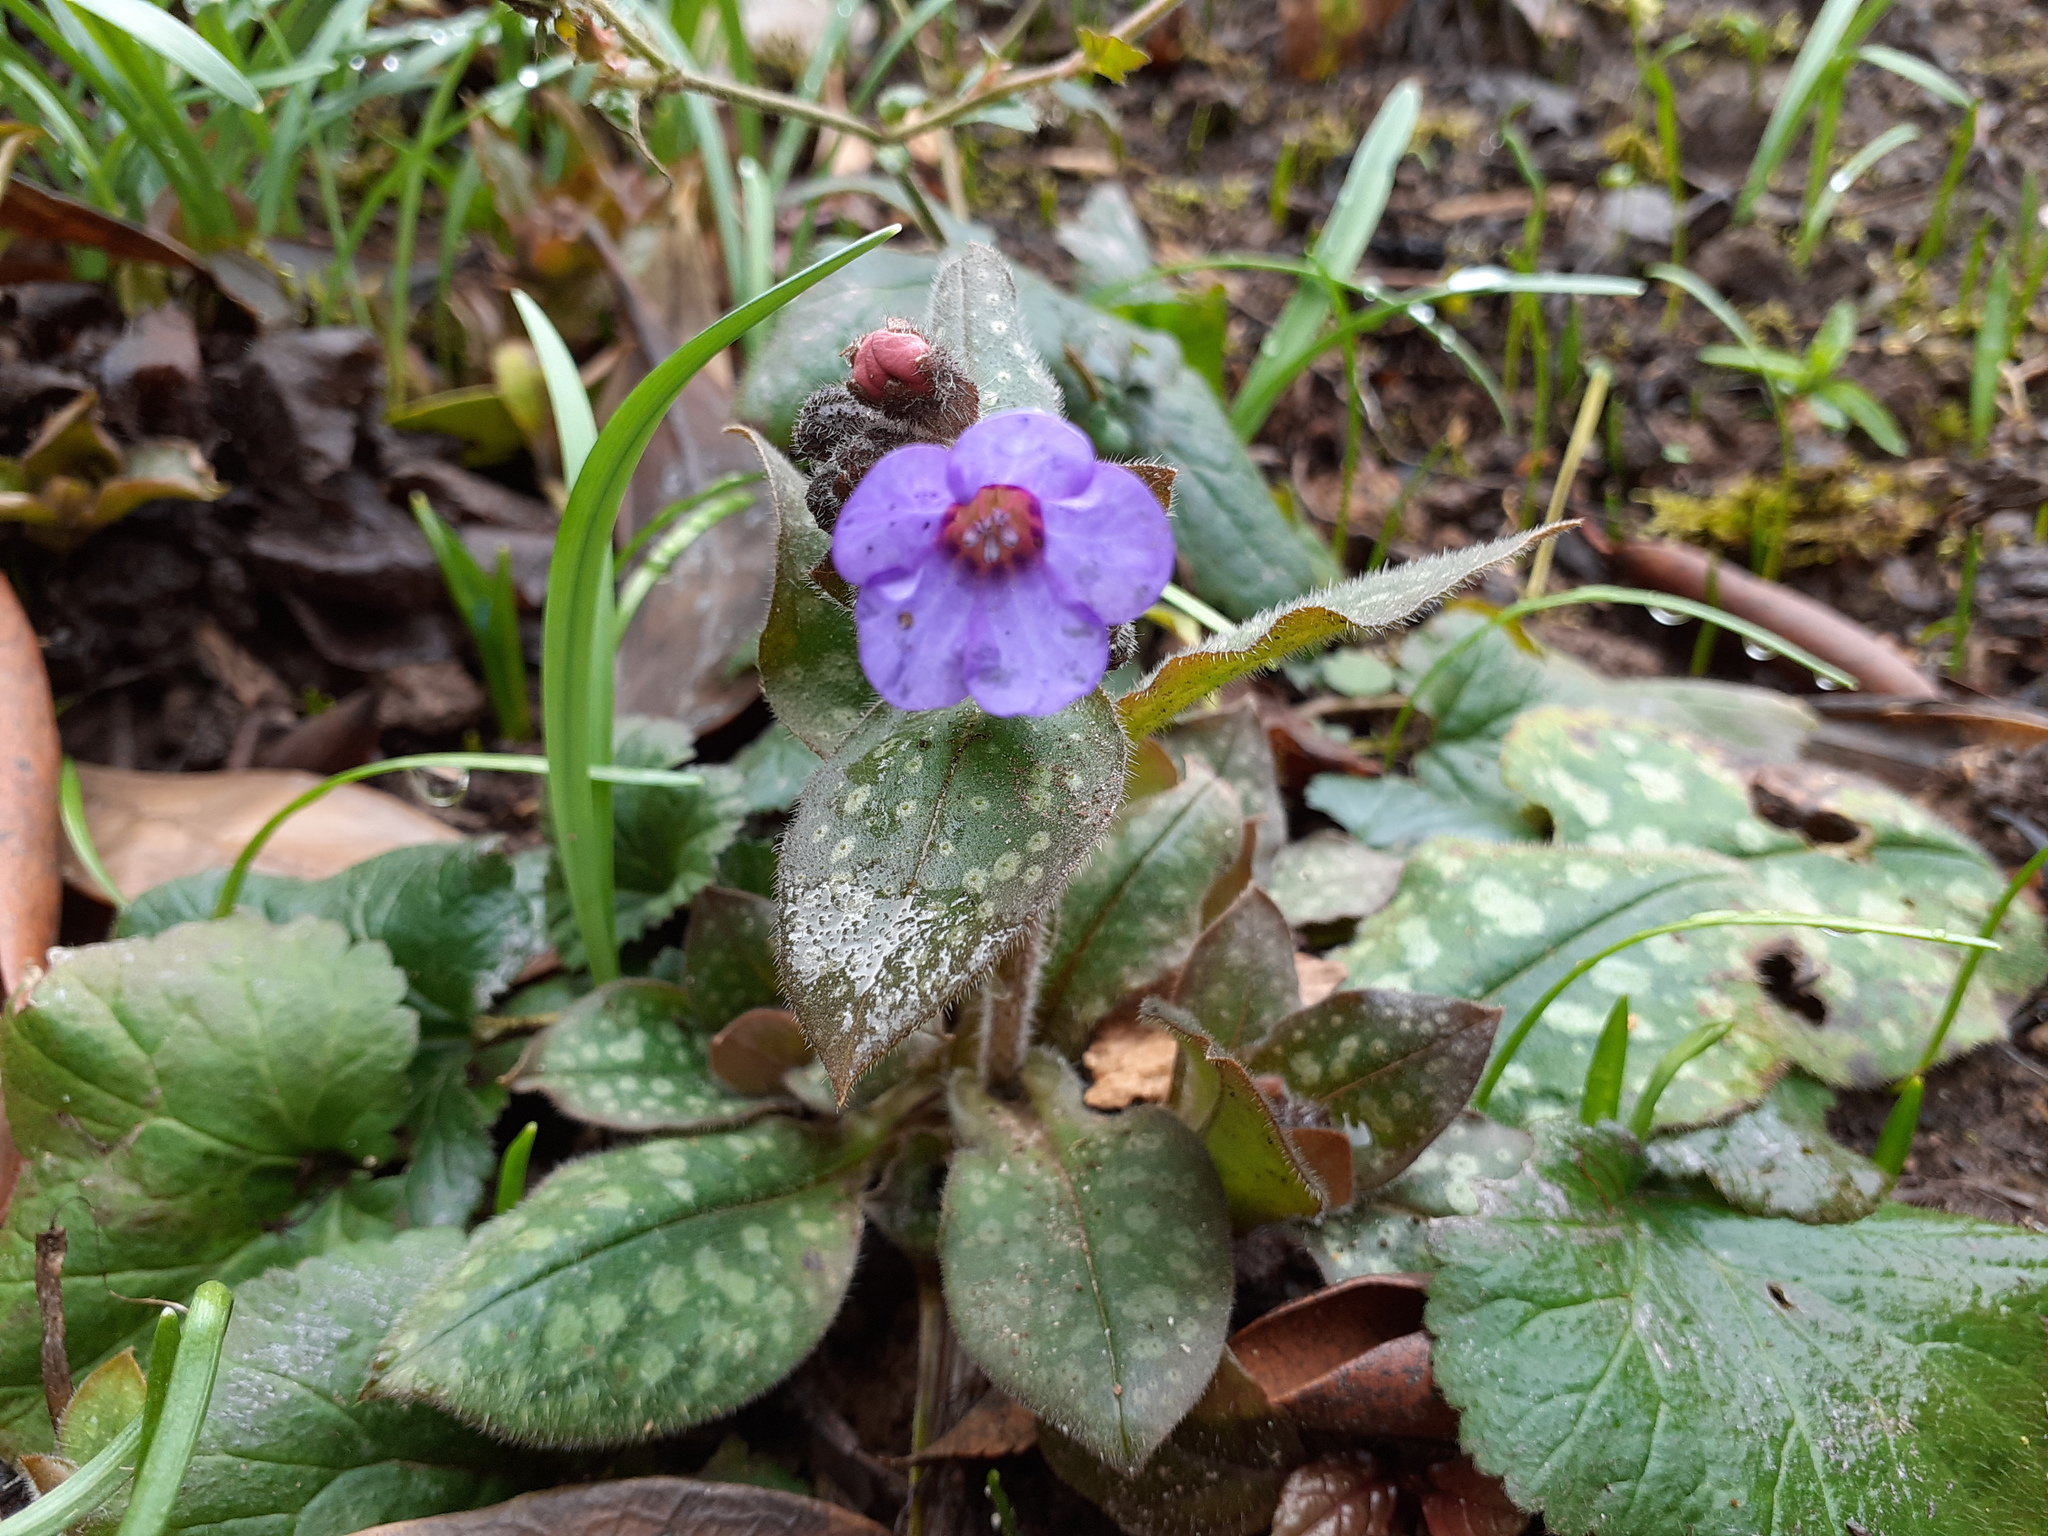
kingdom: Plantae
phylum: Tracheophyta
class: Magnoliopsida
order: Boraginales
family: Boraginaceae
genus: Pulmonaria
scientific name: Pulmonaria officinalis
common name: Lungwort
